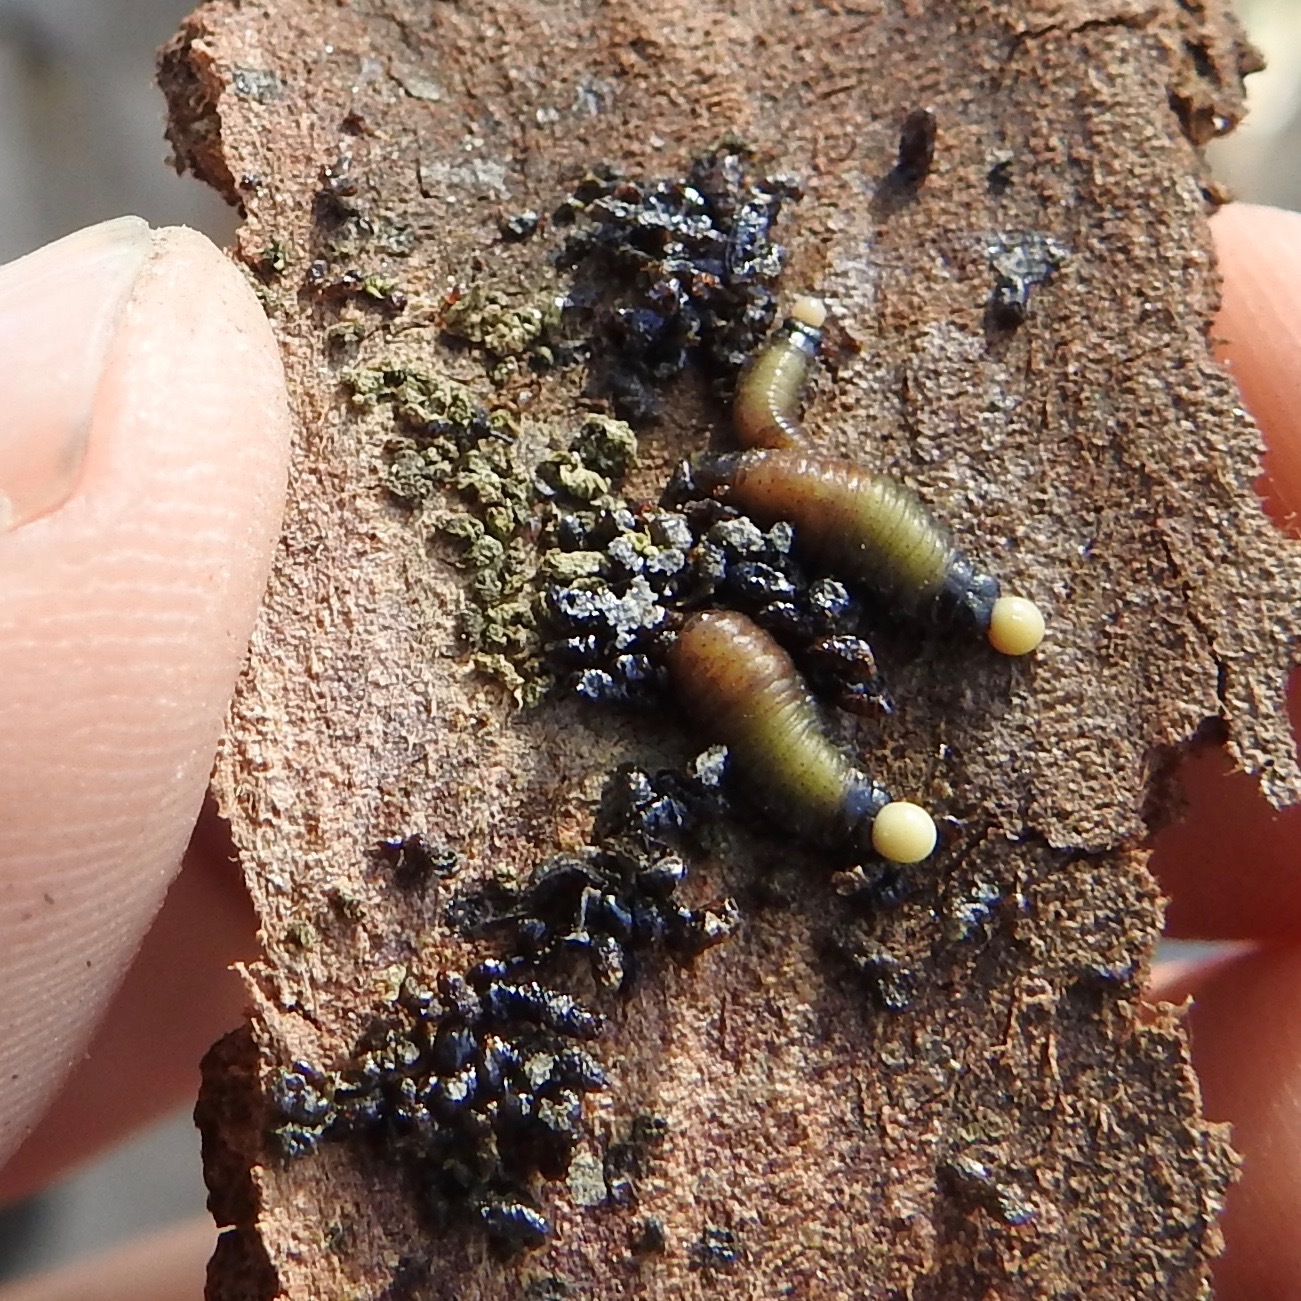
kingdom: Animalia
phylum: Arthropoda
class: Insecta
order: Coleoptera
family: Chrysomelidae
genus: Trachymela
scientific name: Trachymela sloanei
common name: Australian tortoise beetle
